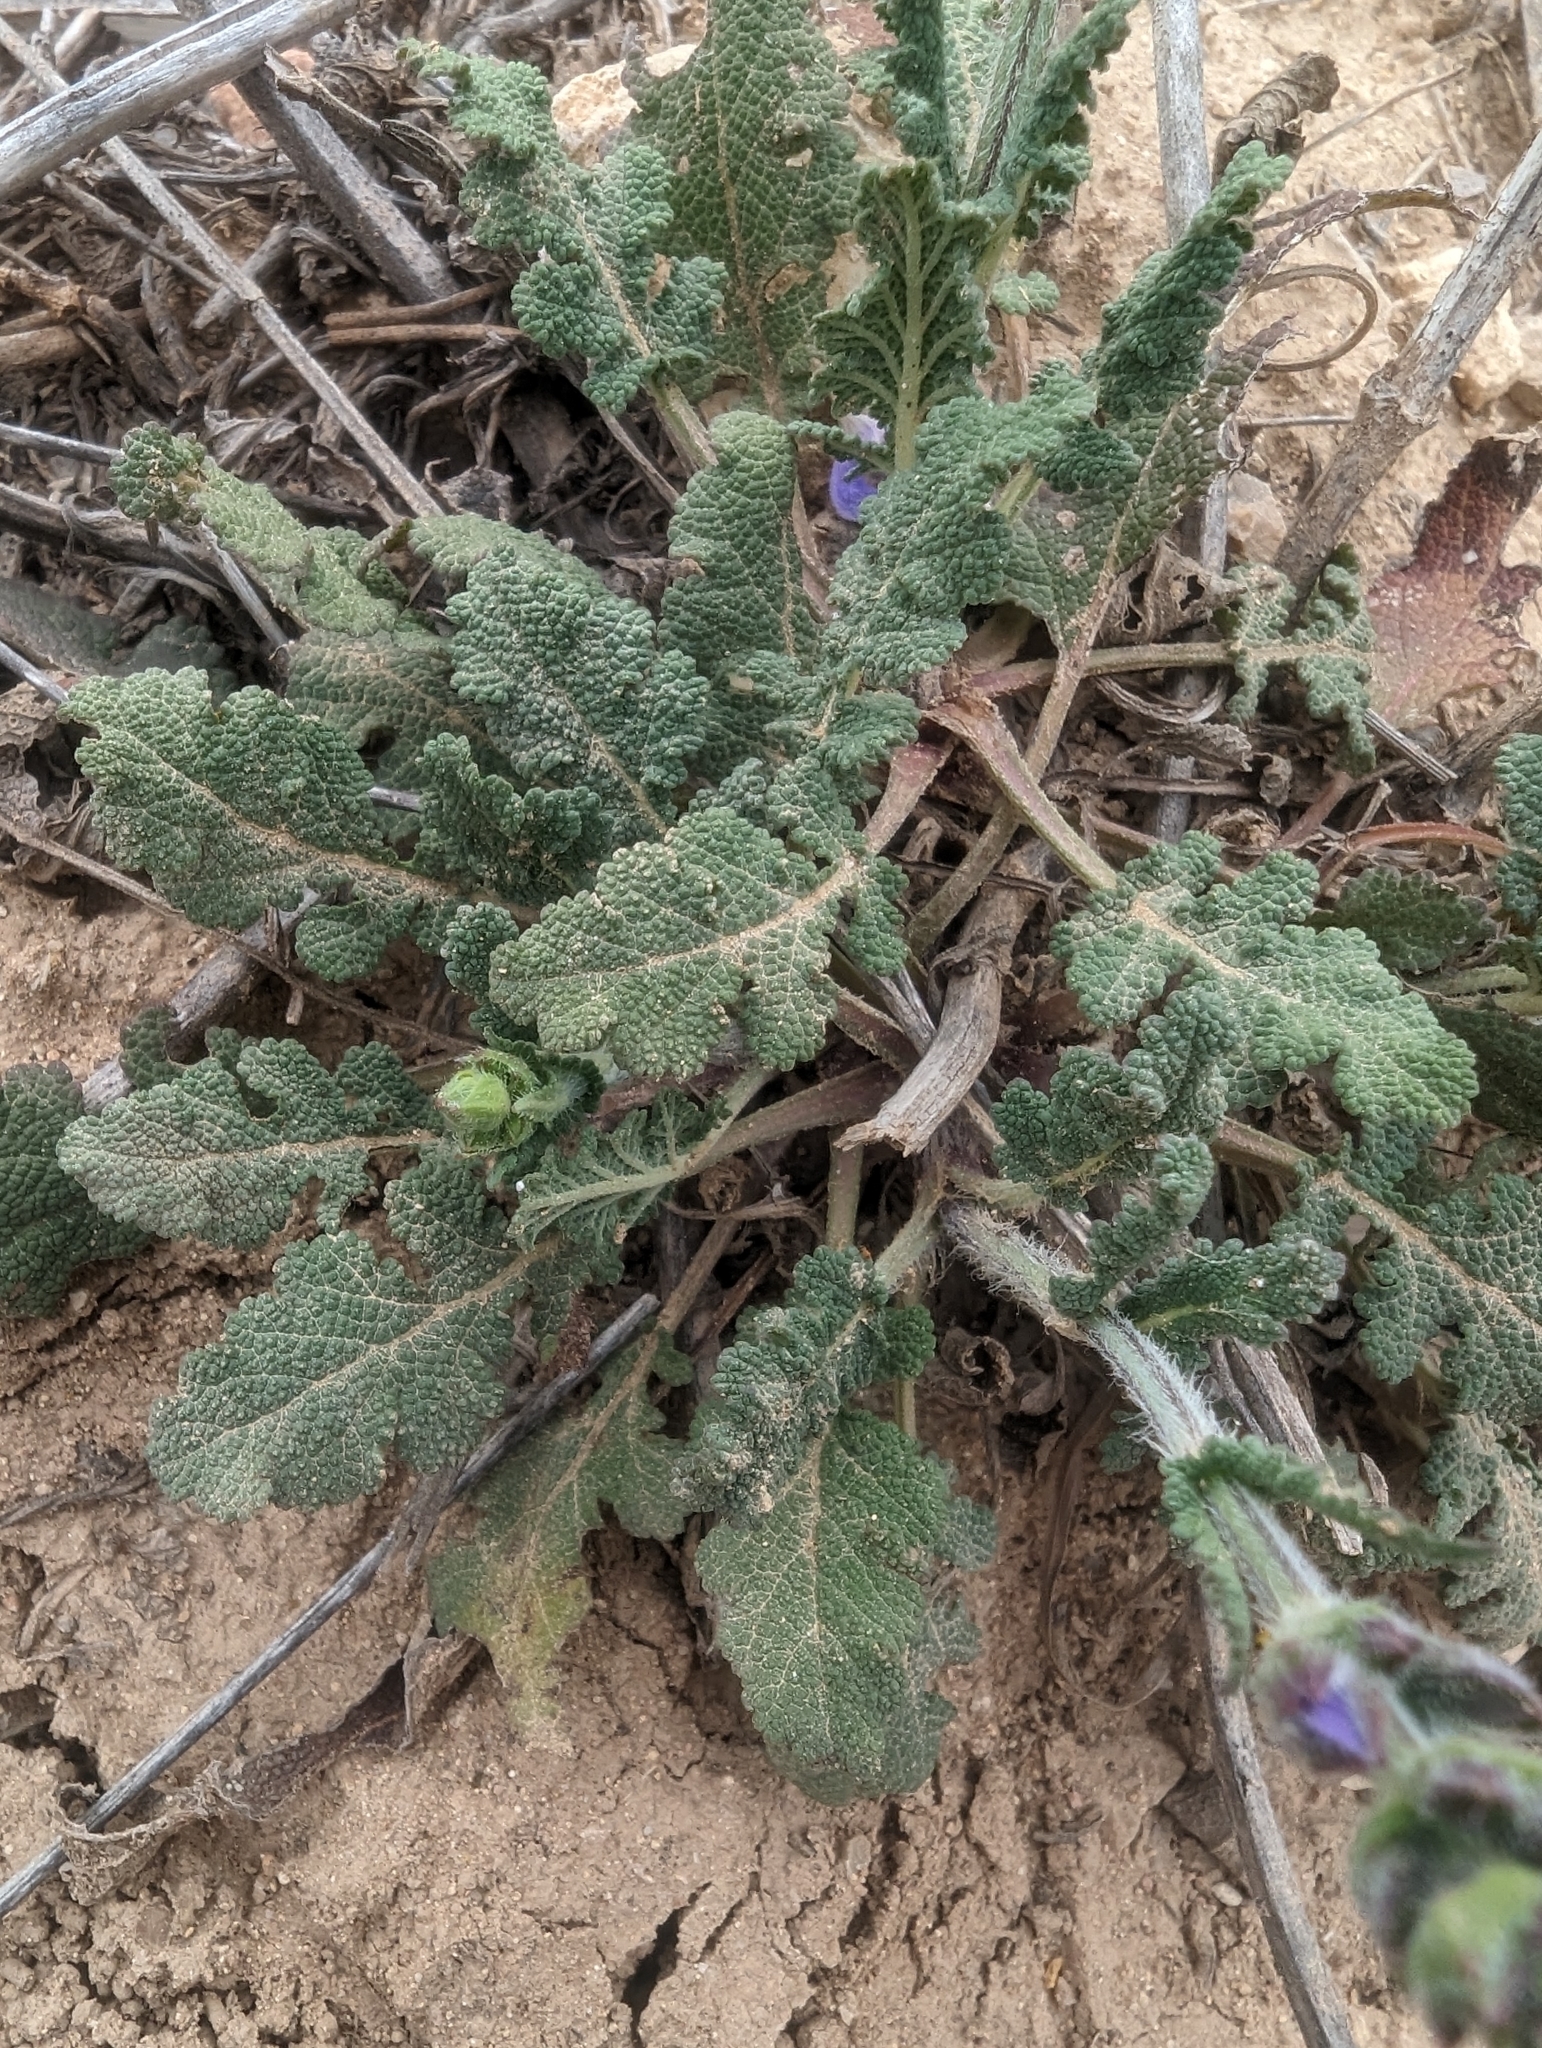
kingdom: Plantae
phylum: Tracheophyta
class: Magnoliopsida
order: Lamiales
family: Lamiaceae
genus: Salvia
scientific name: Salvia verbenaca
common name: Wild clary
